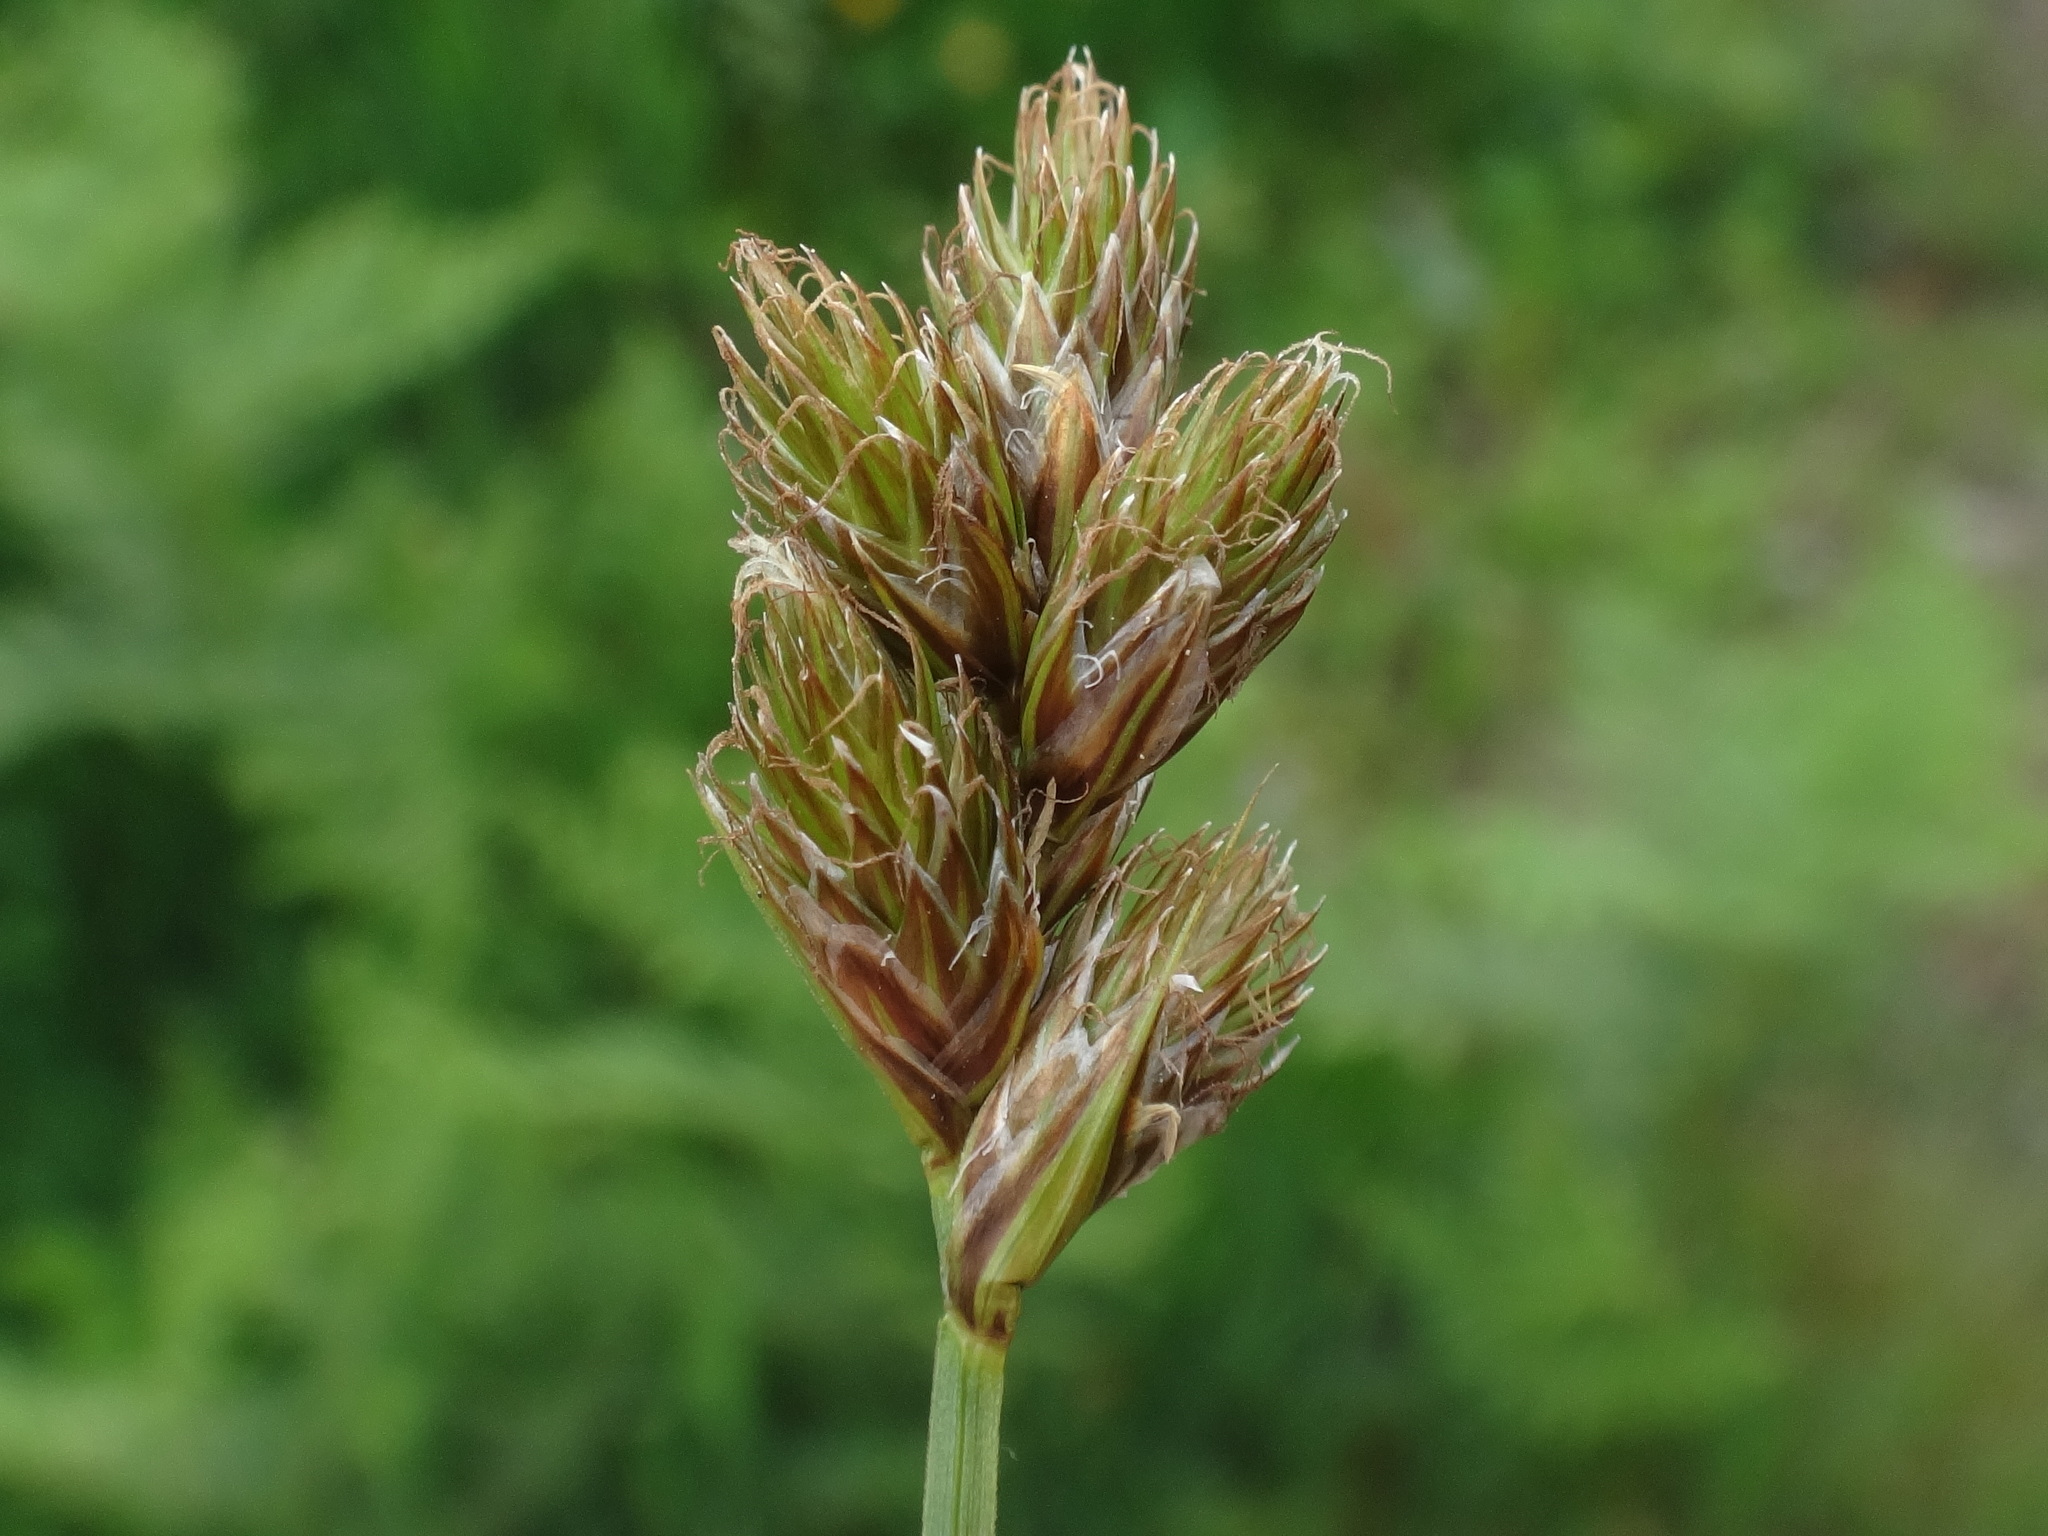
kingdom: Plantae
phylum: Tracheophyta
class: Liliopsida
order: Poales
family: Cyperaceae
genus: Carex
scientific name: Carex leporina
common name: Oval sedge
